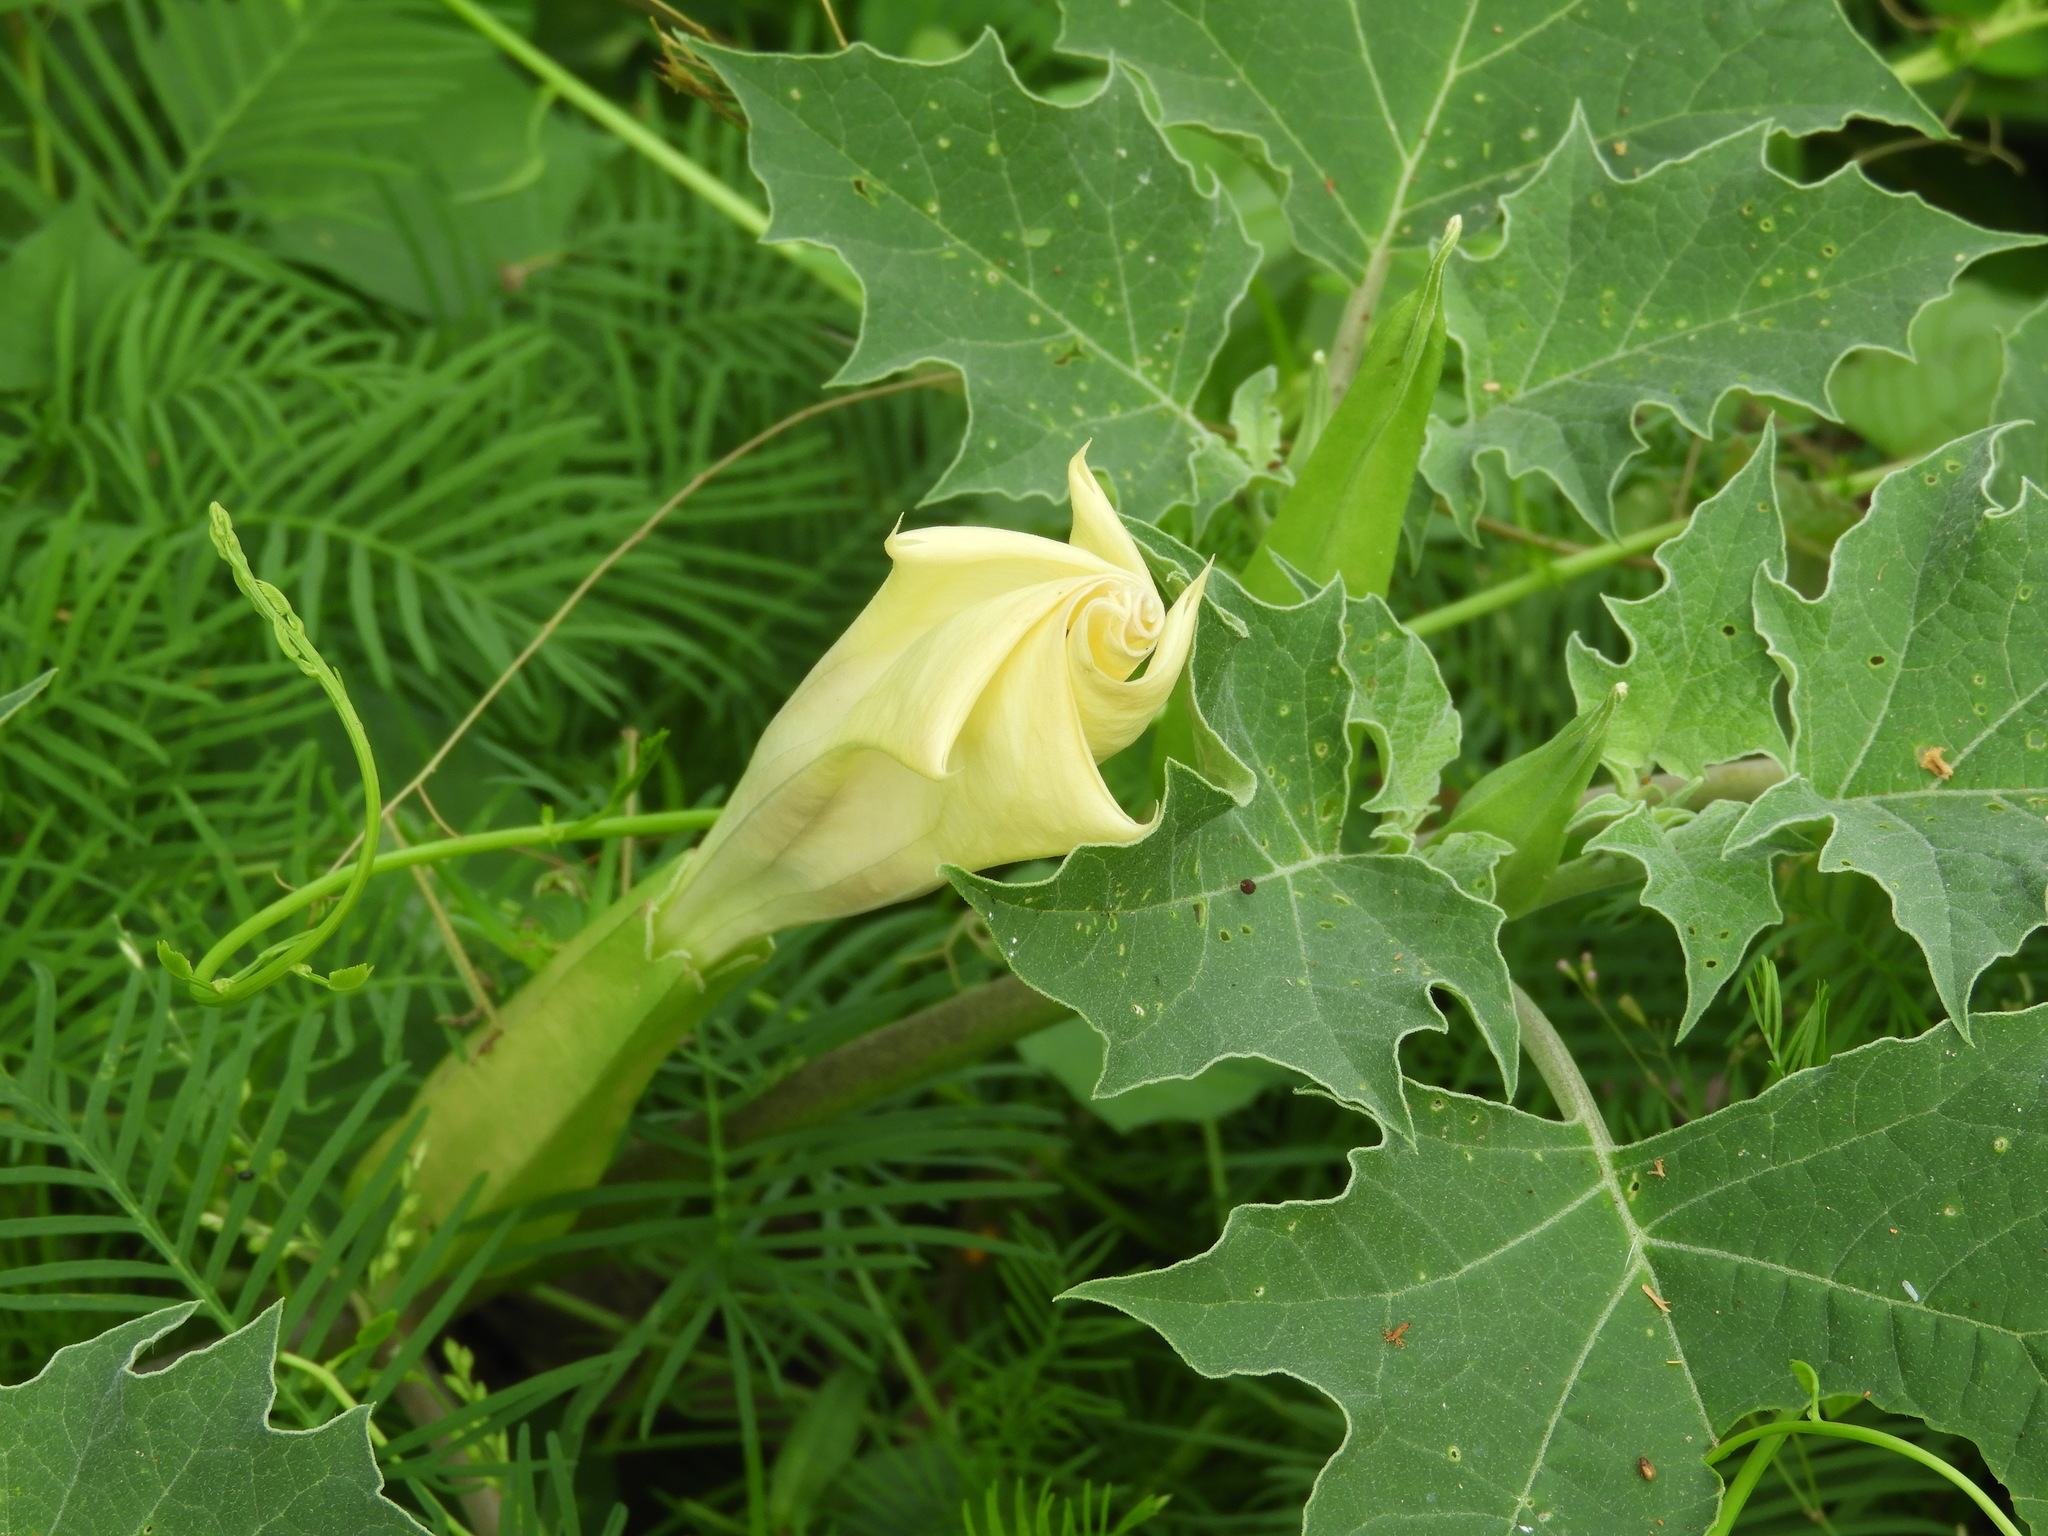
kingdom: Plantae
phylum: Tracheophyta
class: Magnoliopsida
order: Solanales
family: Solanaceae
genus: Datura
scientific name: Datura
